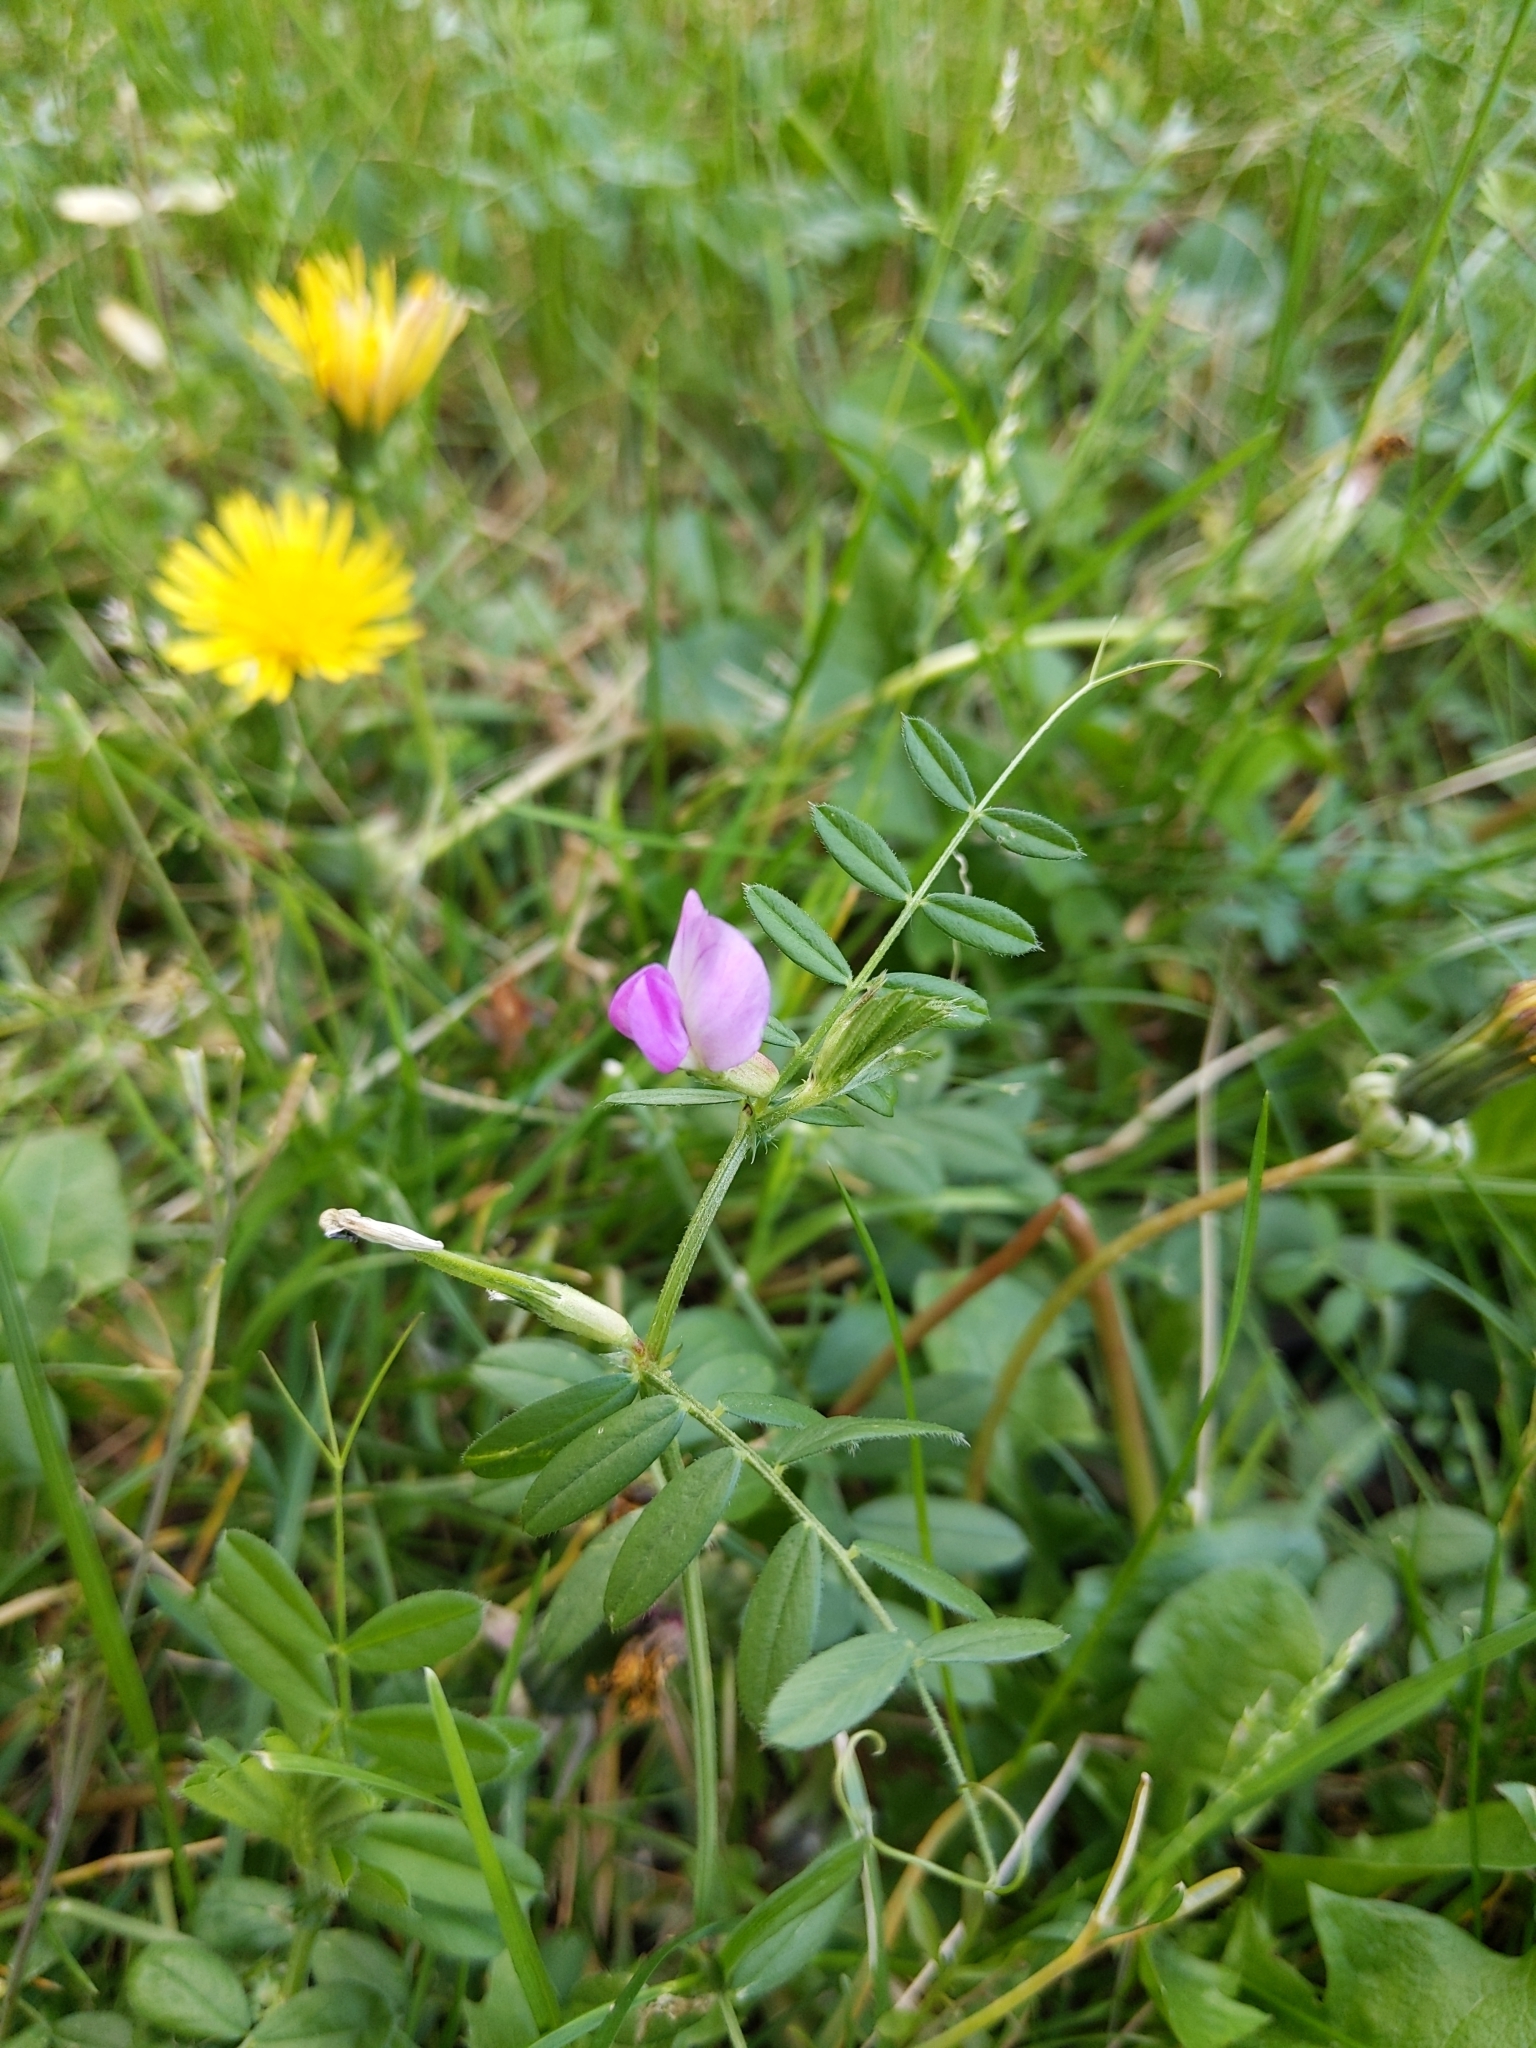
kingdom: Plantae
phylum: Tracheophyta
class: Magnoliopsida
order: Fabales
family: Fabaceae
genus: Vicia
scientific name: Vicia sativa
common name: Garden vetch
